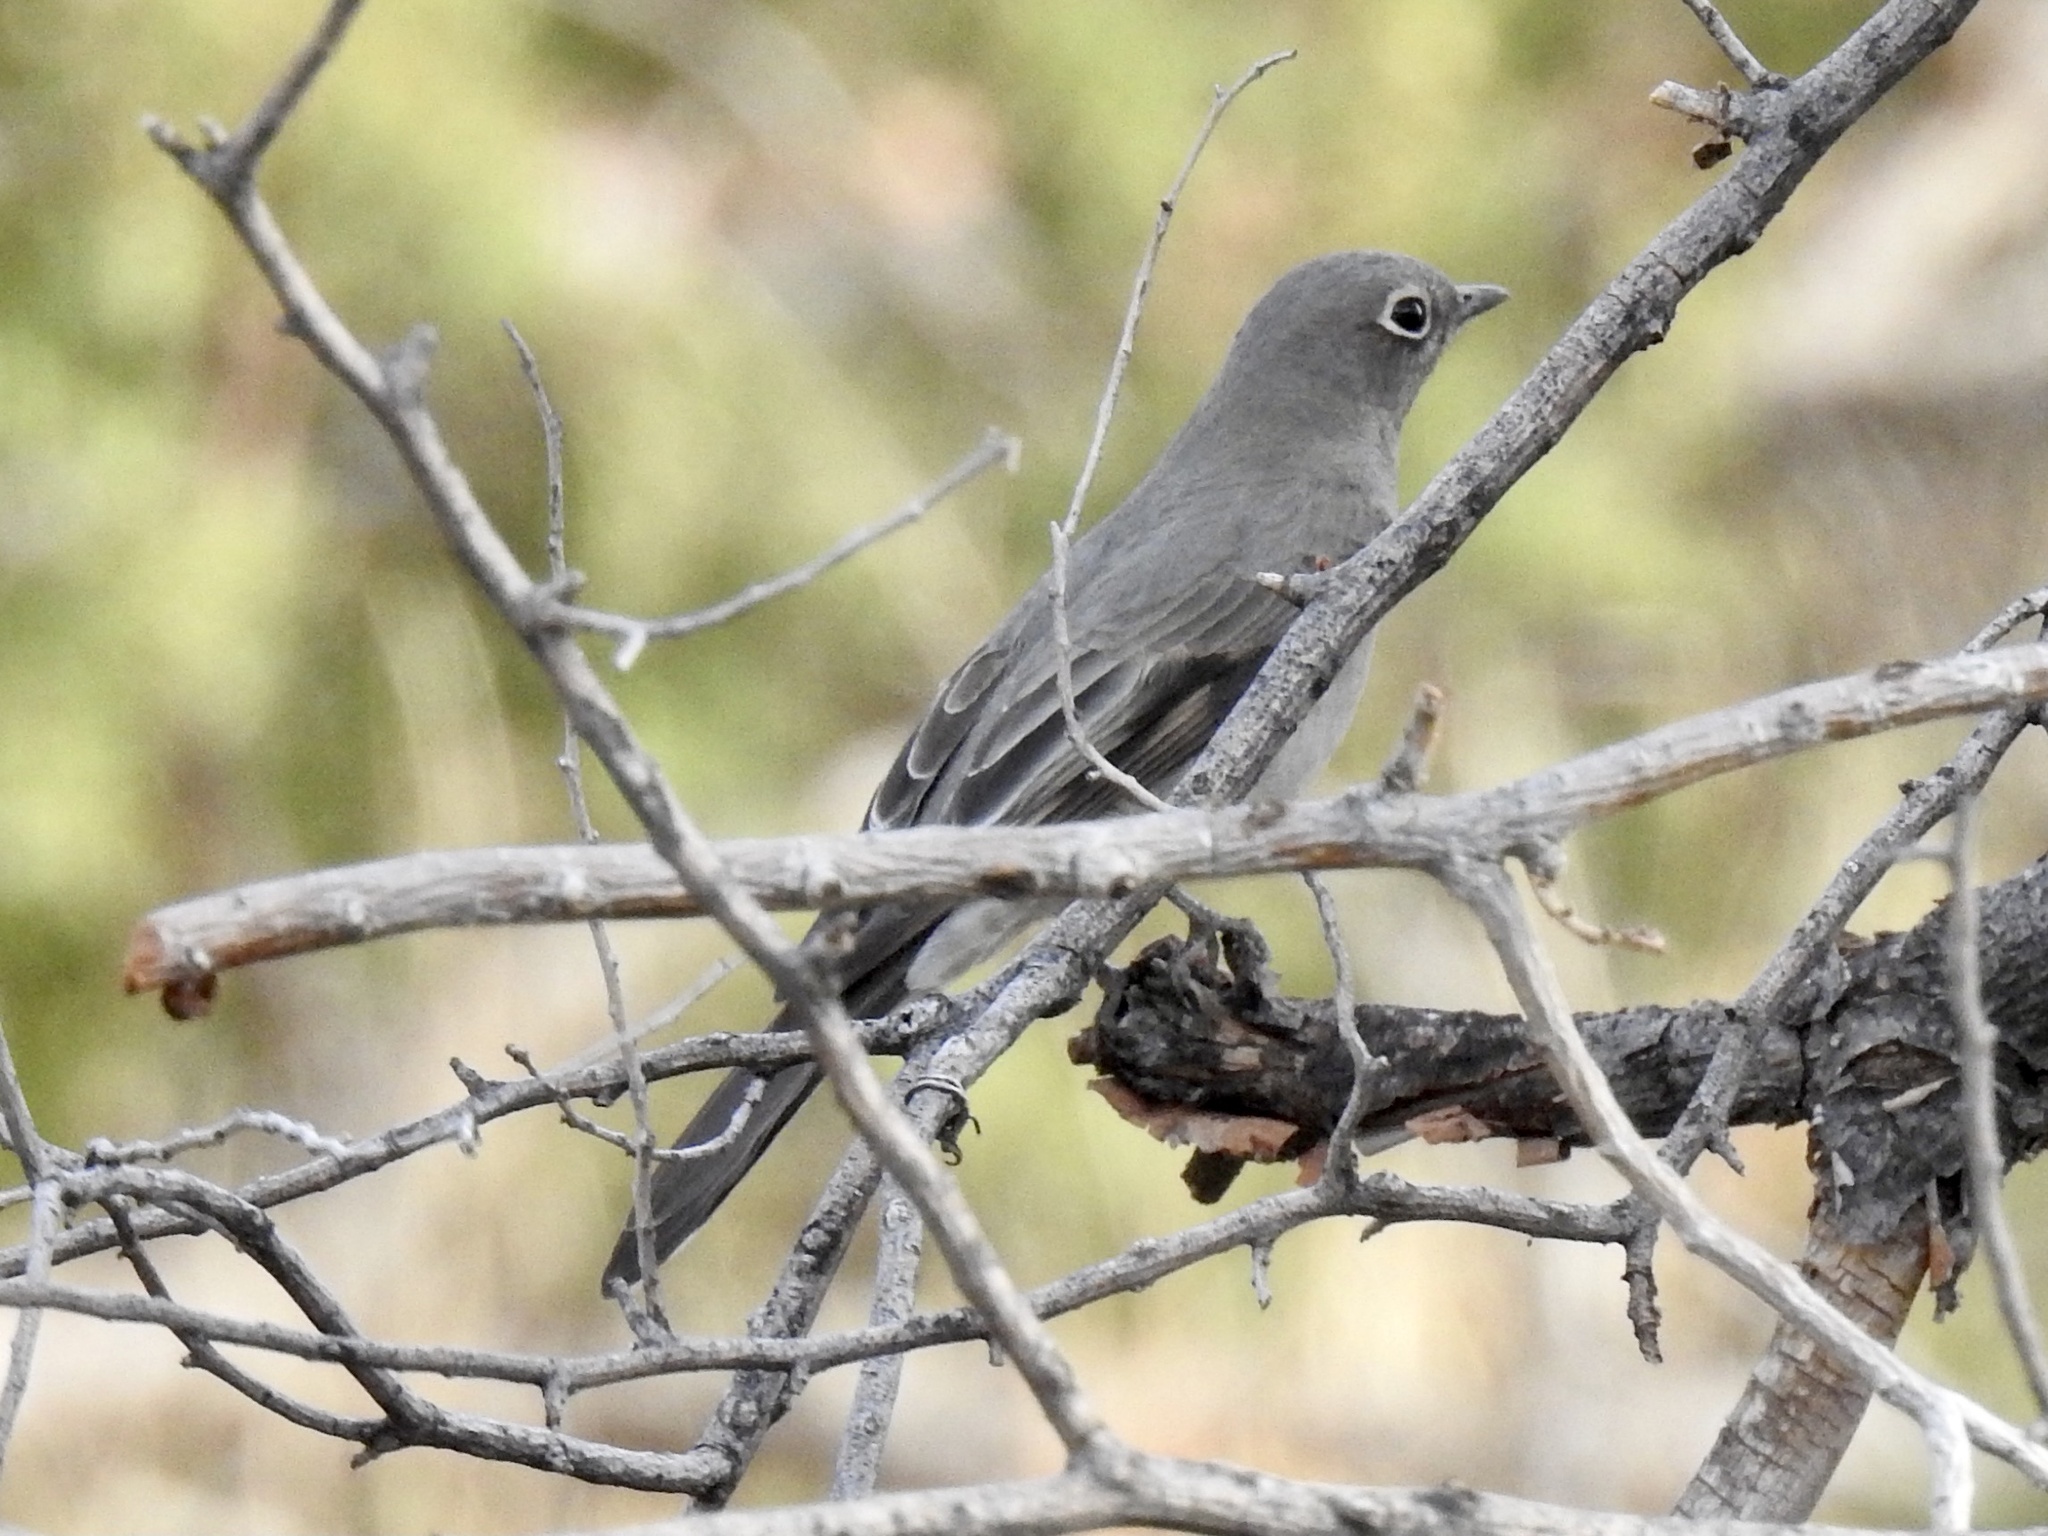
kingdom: Animalia
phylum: Chordata
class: Aves
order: Passeriformes
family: Turdidae
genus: Myadestes
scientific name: Myadestes townsendi
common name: Townsend's solitaire
